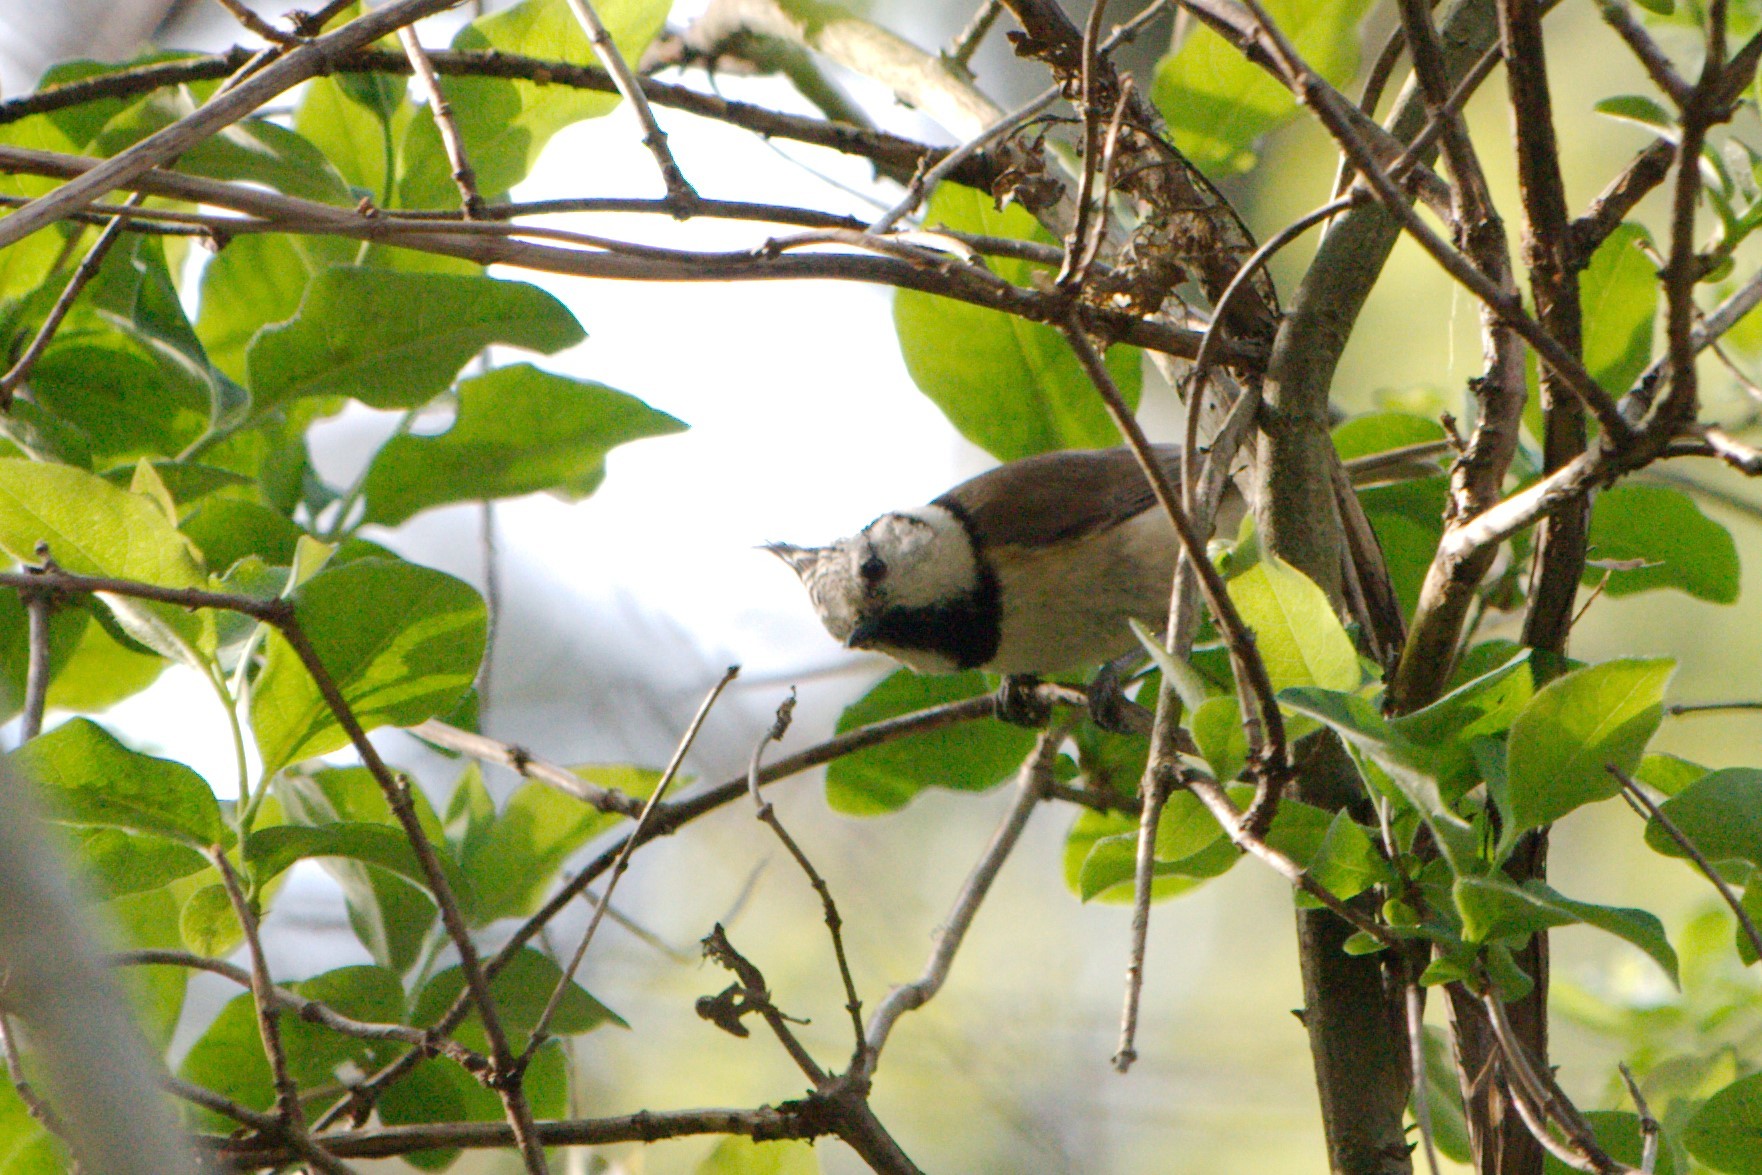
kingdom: Animalia
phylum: Chordata
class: Aves
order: Passeriformes
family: Paridae
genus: Lophophanes
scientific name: Lophophanes cristatus
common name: European crested tit
